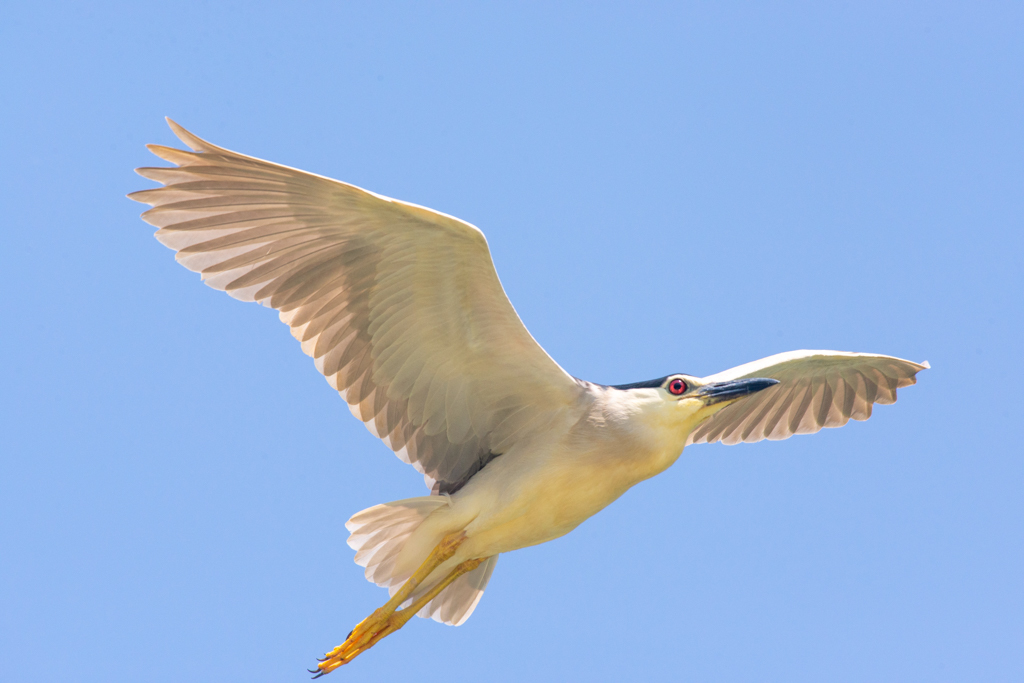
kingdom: Animalia
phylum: Chordata
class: Aves
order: Pelecaniformes
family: Ardeidae
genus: Nycticorax
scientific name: Nycticorax nycticorax
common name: Black-crowned night heron
